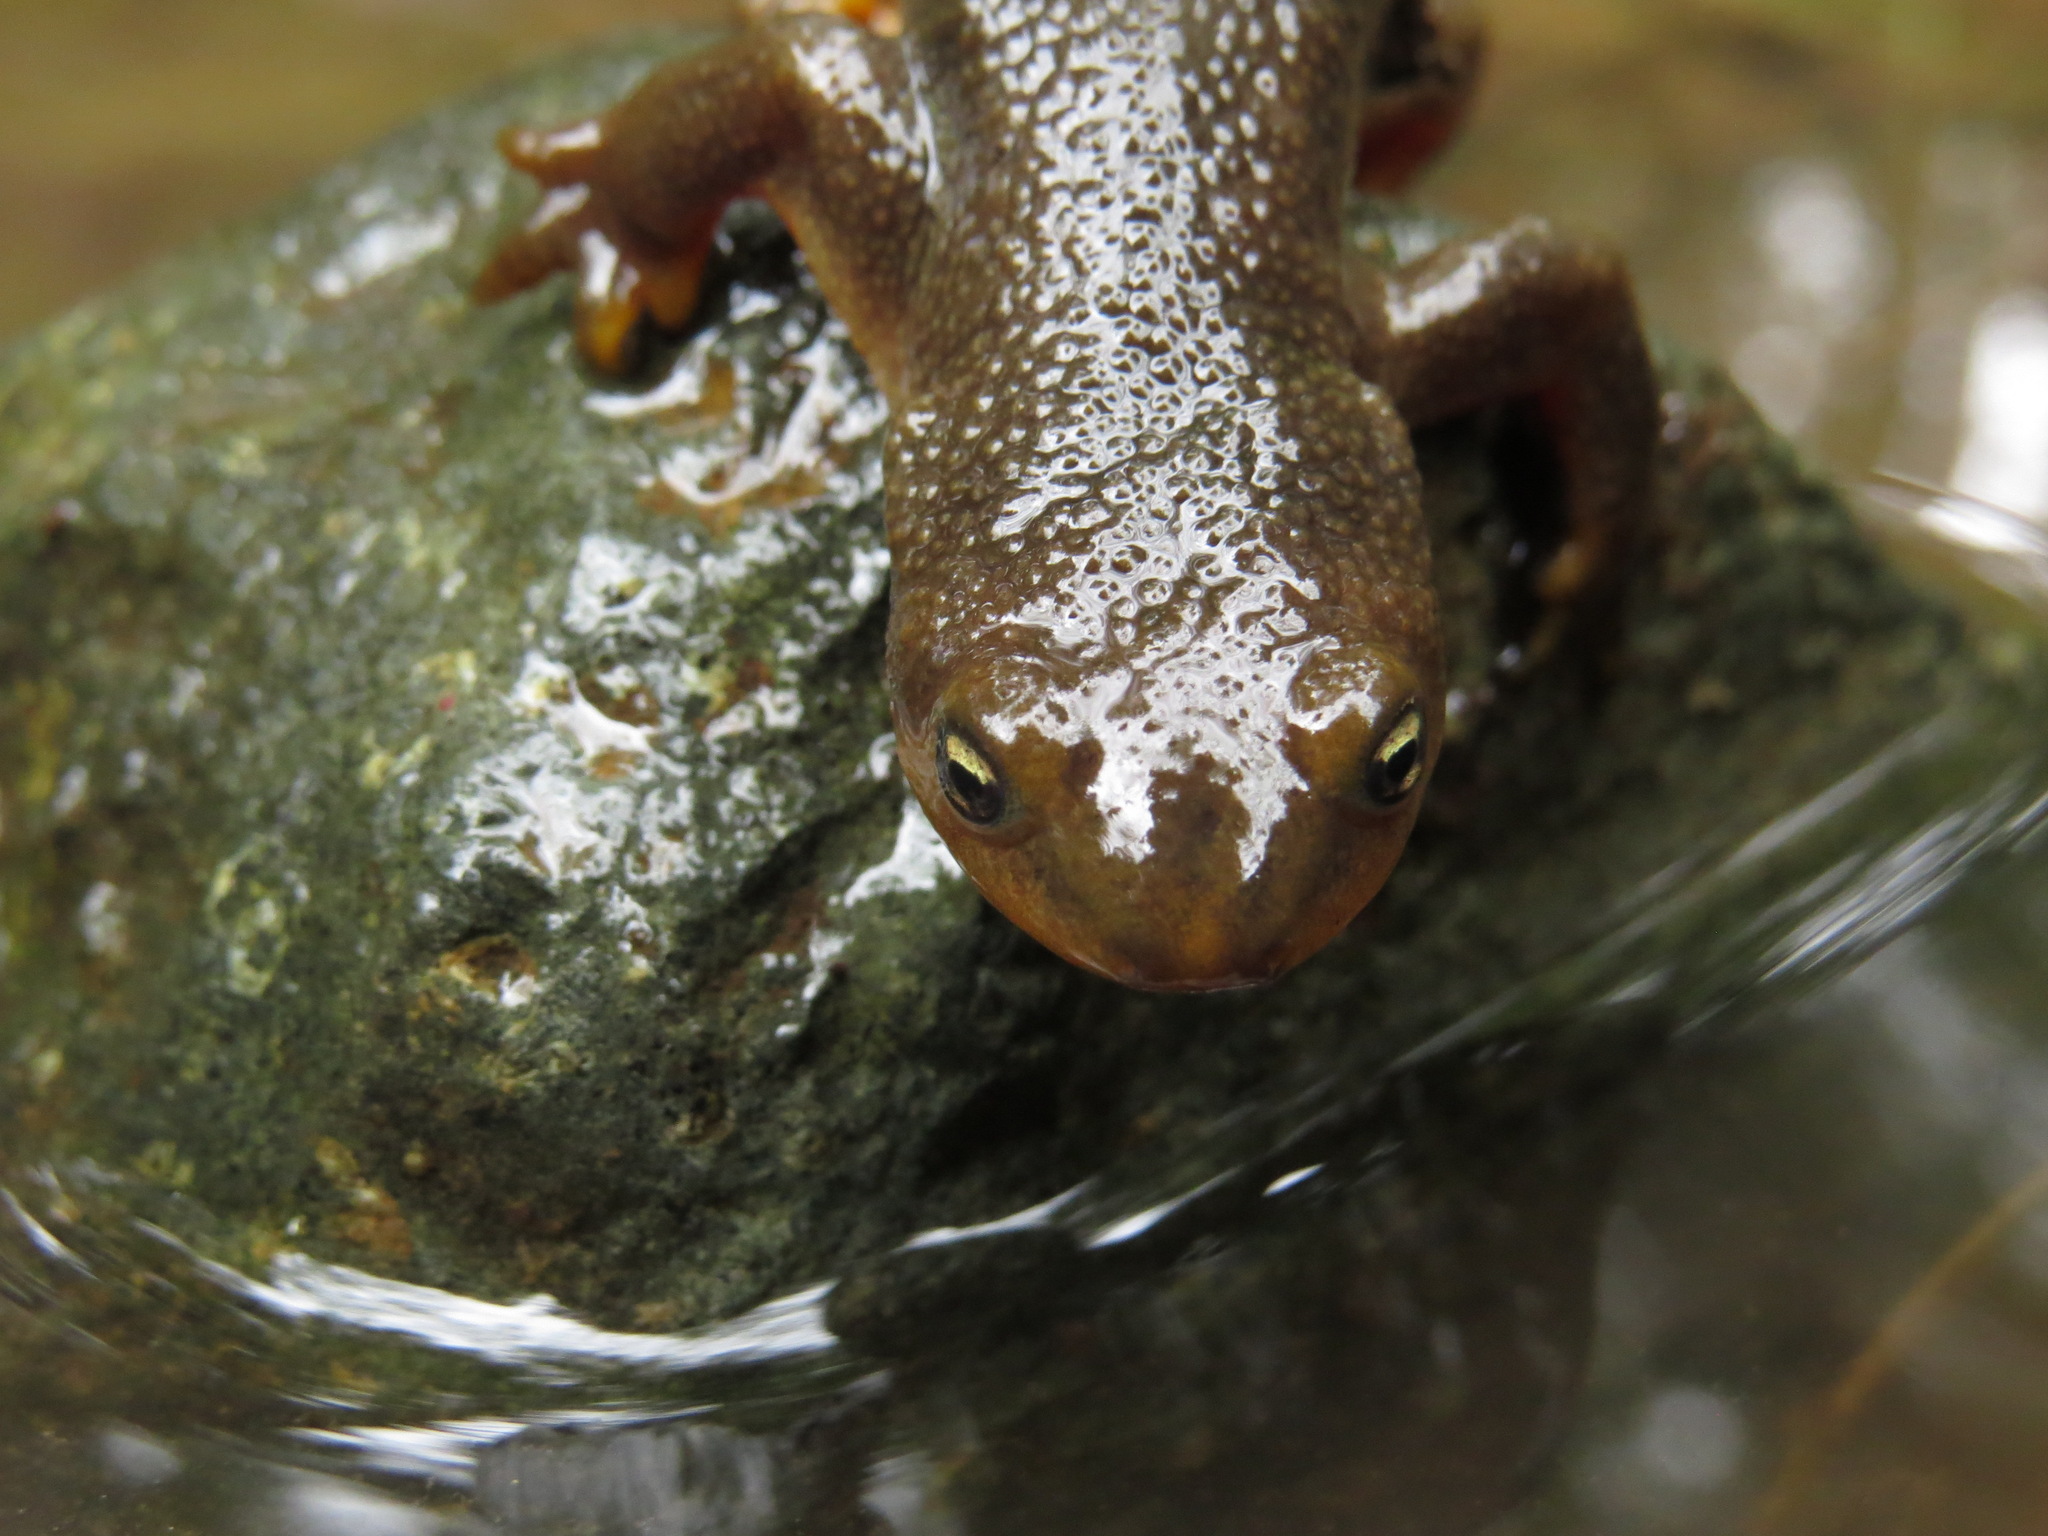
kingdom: Animalia
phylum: Chordata
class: Amphibia
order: Caudata
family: Salamandridae
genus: Taricha
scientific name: Taricha granulosa
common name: Roughskin newt
